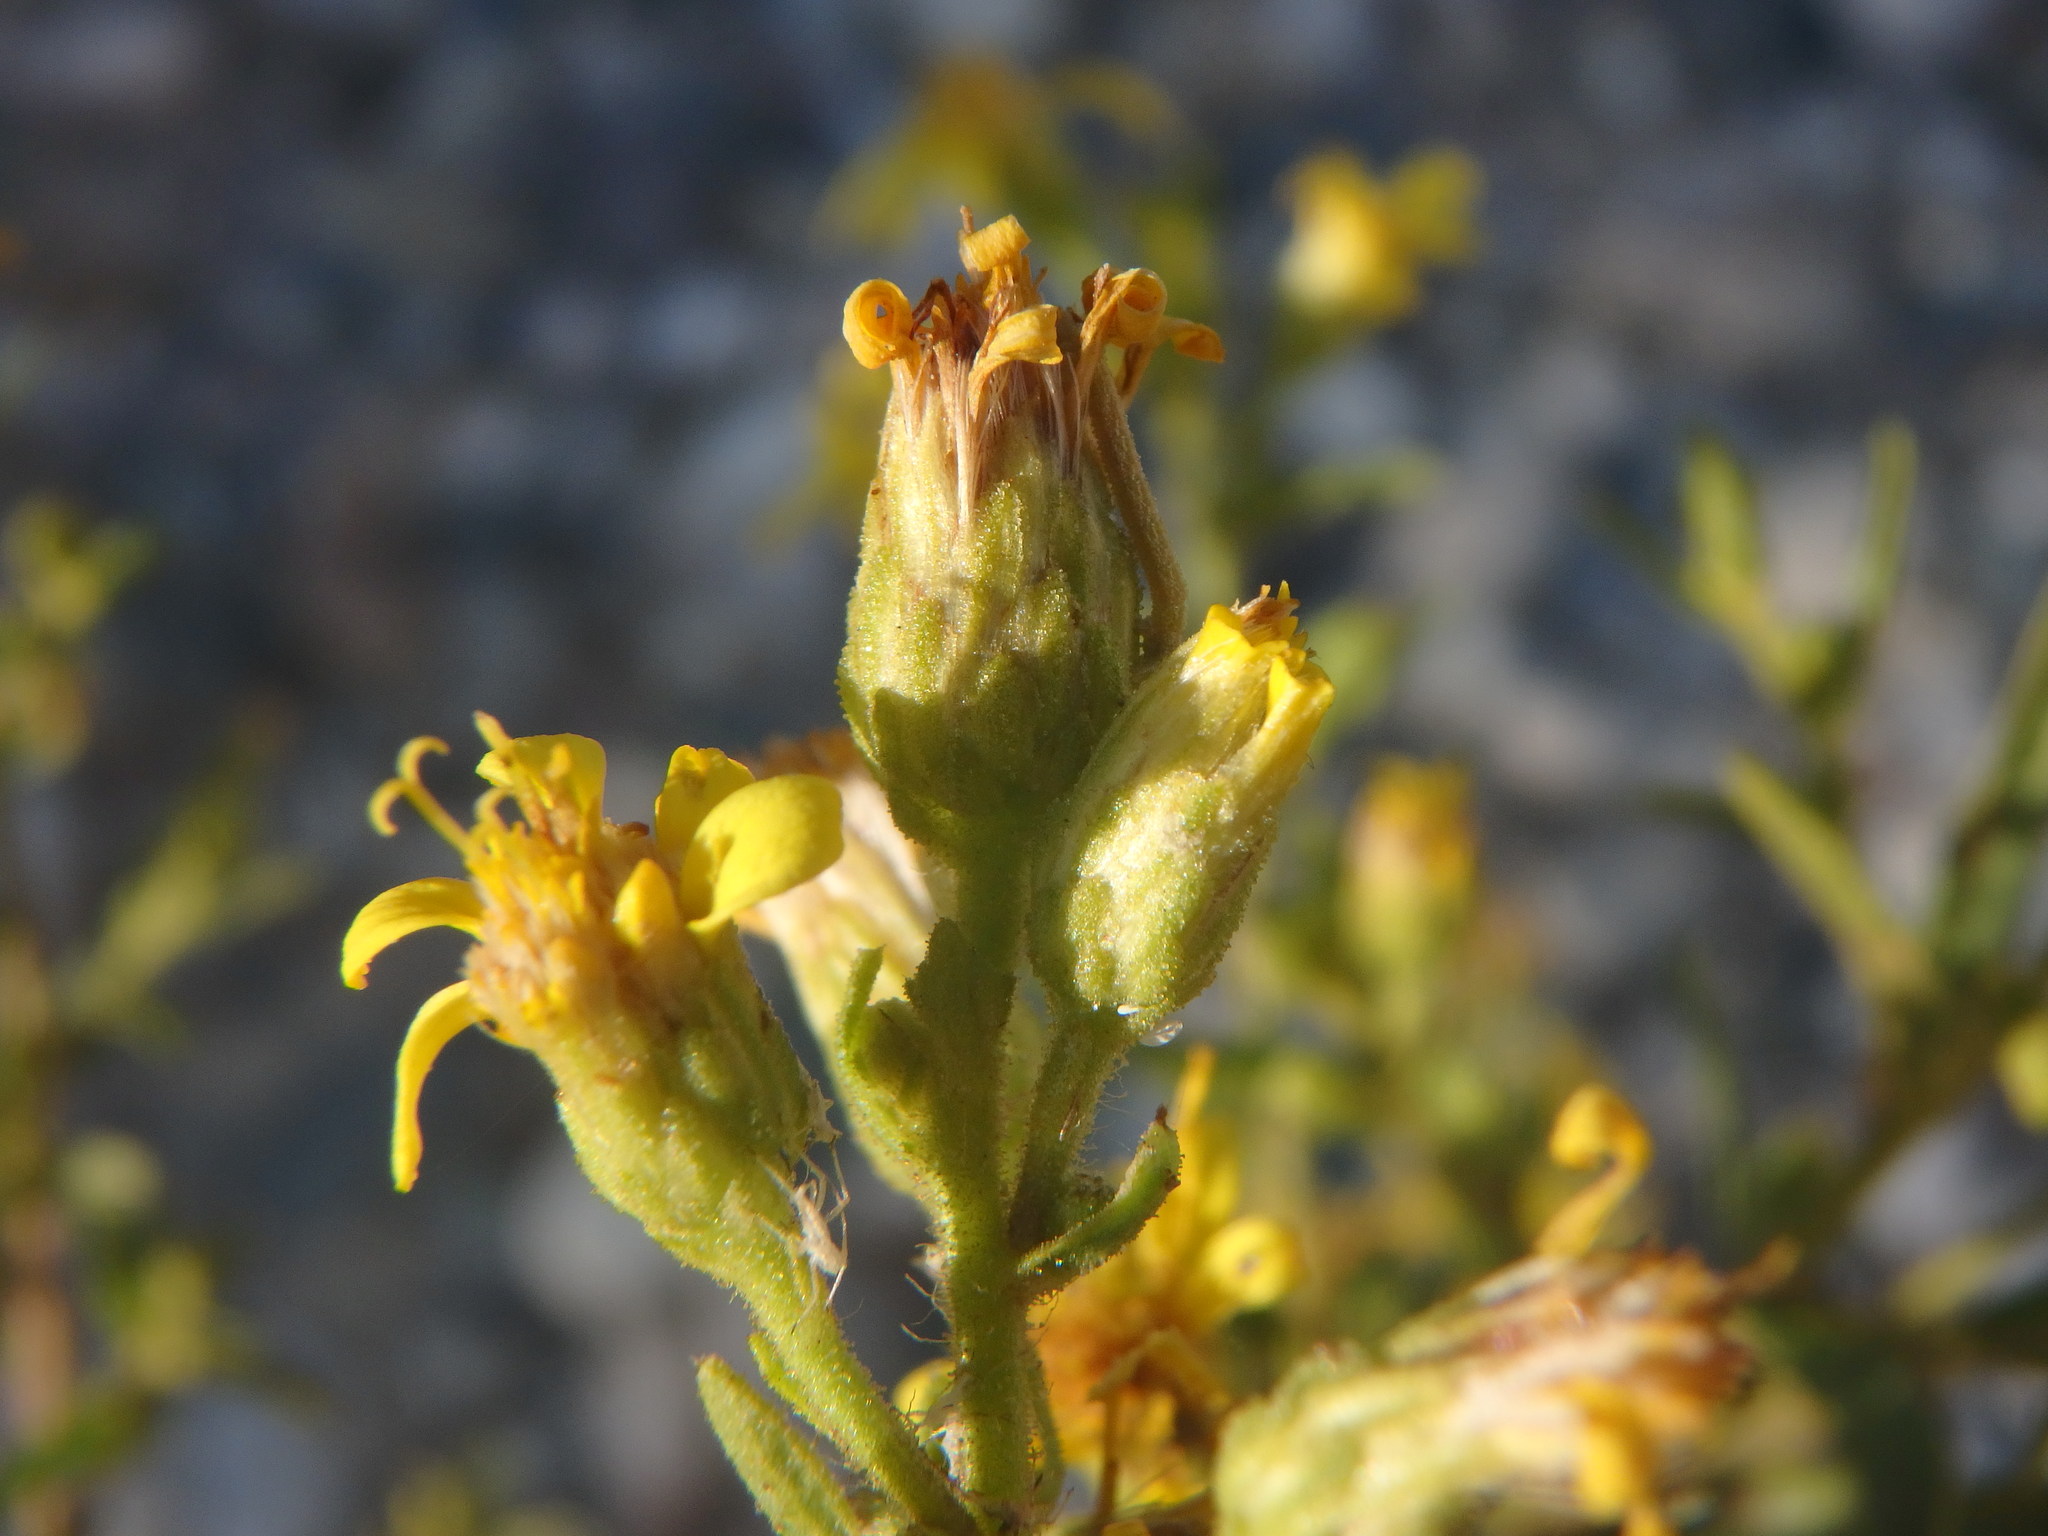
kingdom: Plantae
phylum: Tracheophyta
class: Magnoliopsida
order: Asterales
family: Asteraceae
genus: Dittrichia
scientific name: Dittrichia viscosa
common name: Woody fleabane
